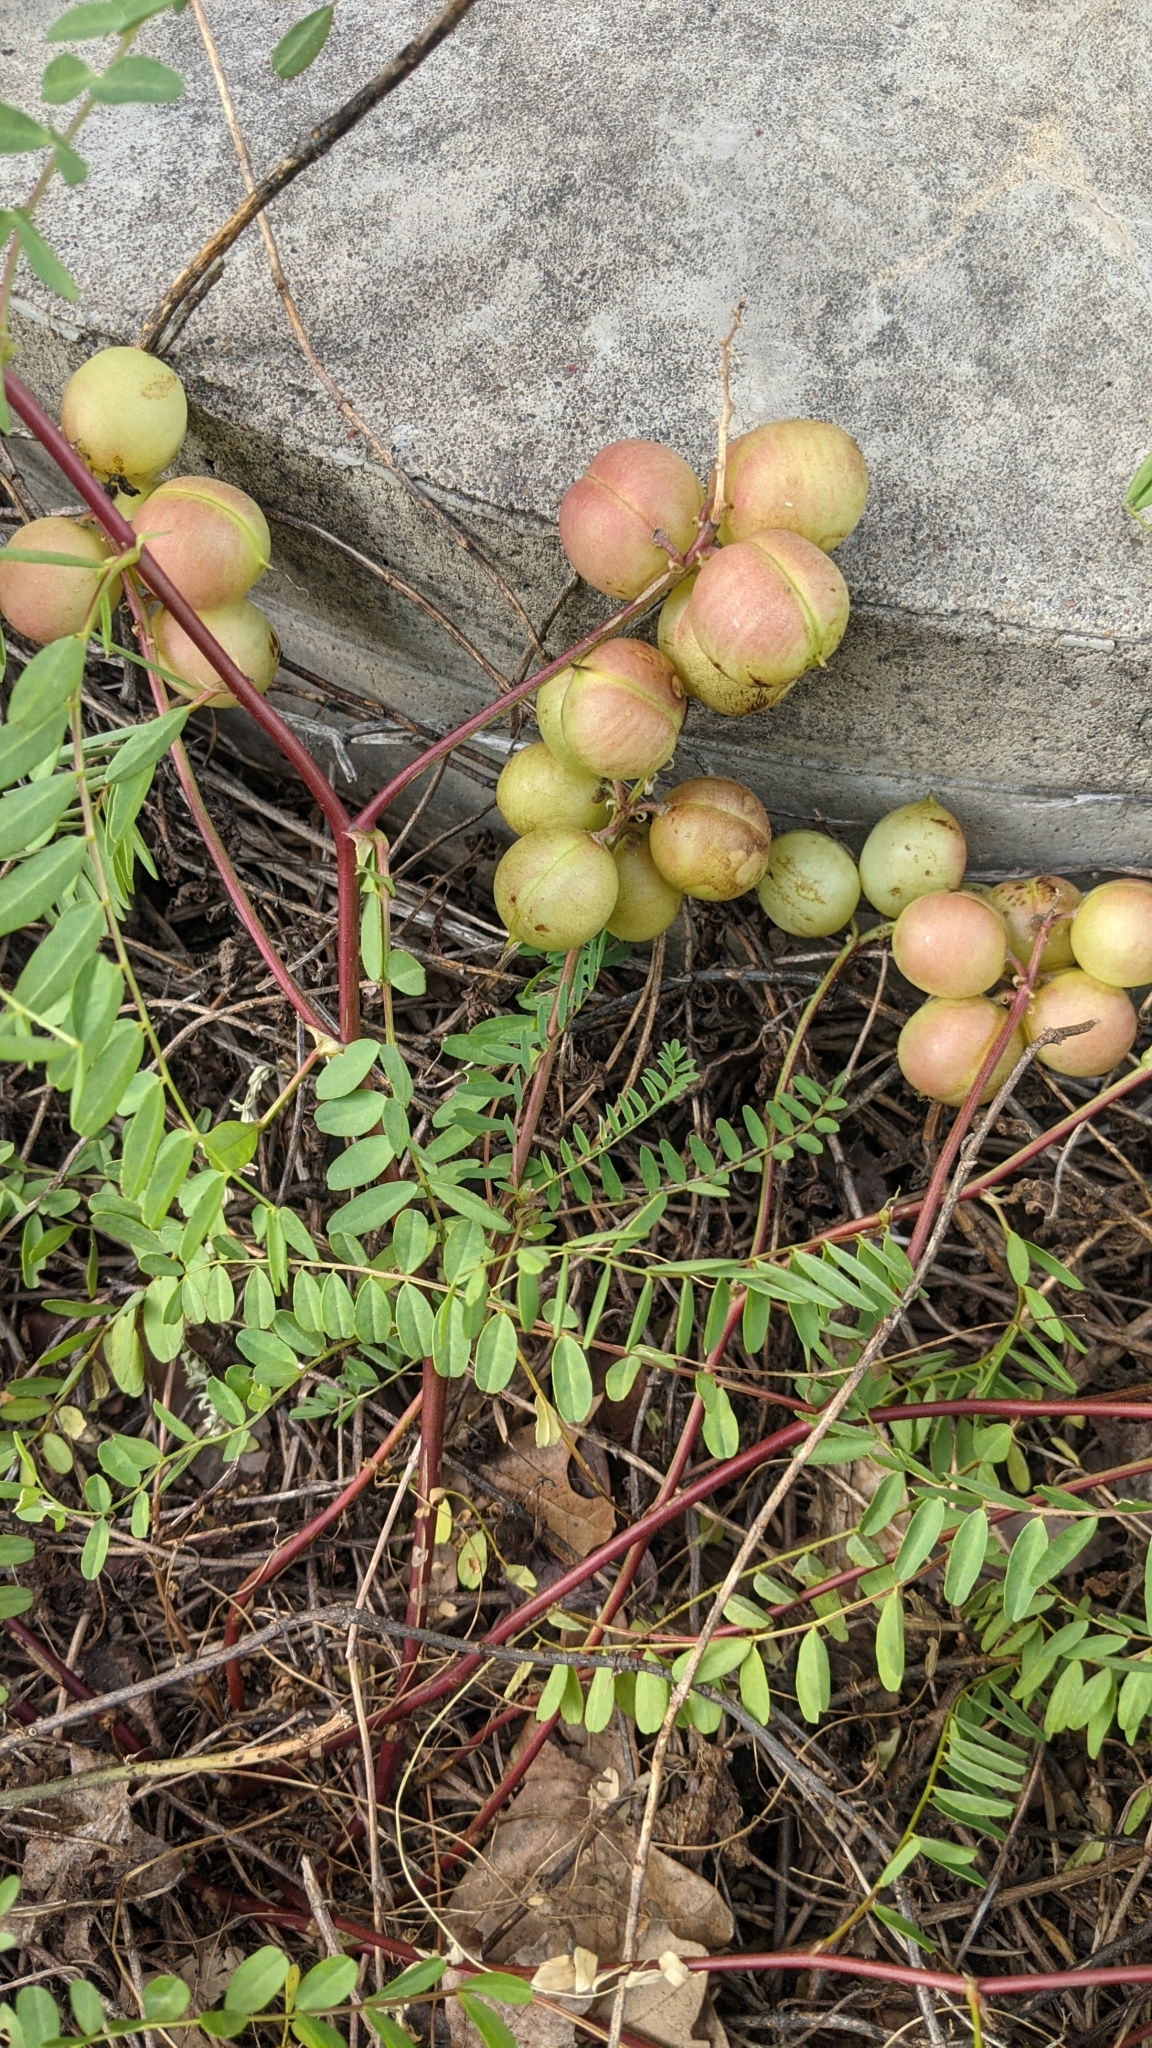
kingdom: Plantae
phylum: Tracheophyta
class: Magnoliopsida
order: Fabales
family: Fabaceae
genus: Astragalus
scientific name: Astragalus crassicarpus
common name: Ground-plum milk-vetch
